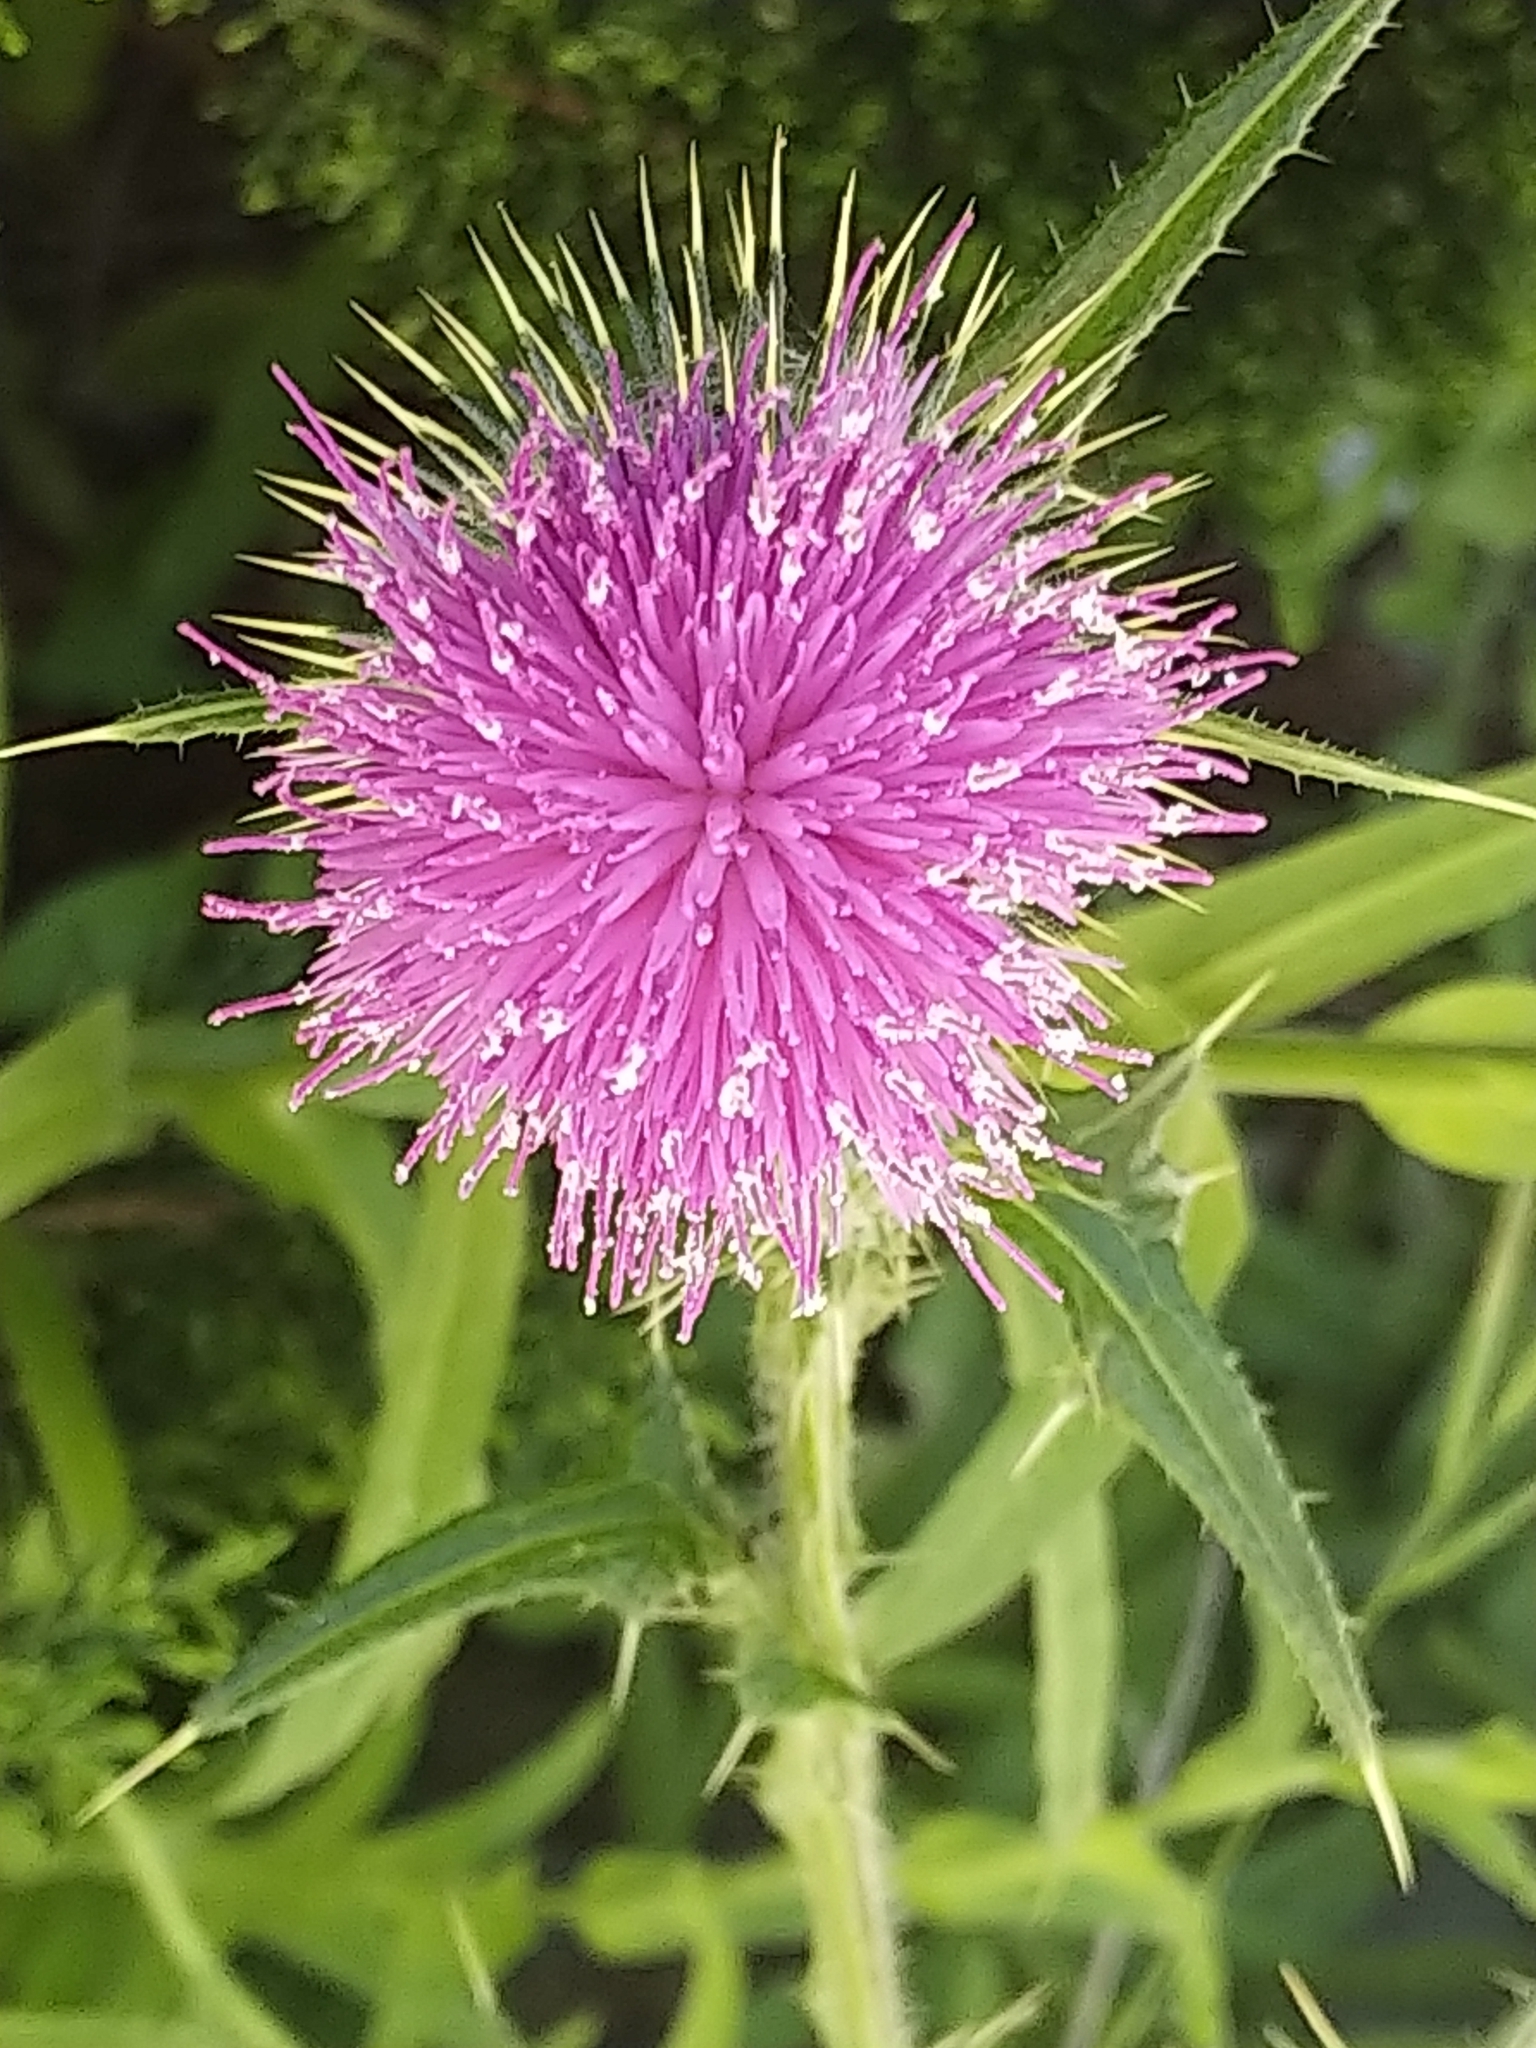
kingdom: Plantae
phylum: Tracheophyta
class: Magnoliopsida
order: Asterales
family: Asteraceae
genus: Cirsium
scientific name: Cirsium vulgare
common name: Bull thistle
